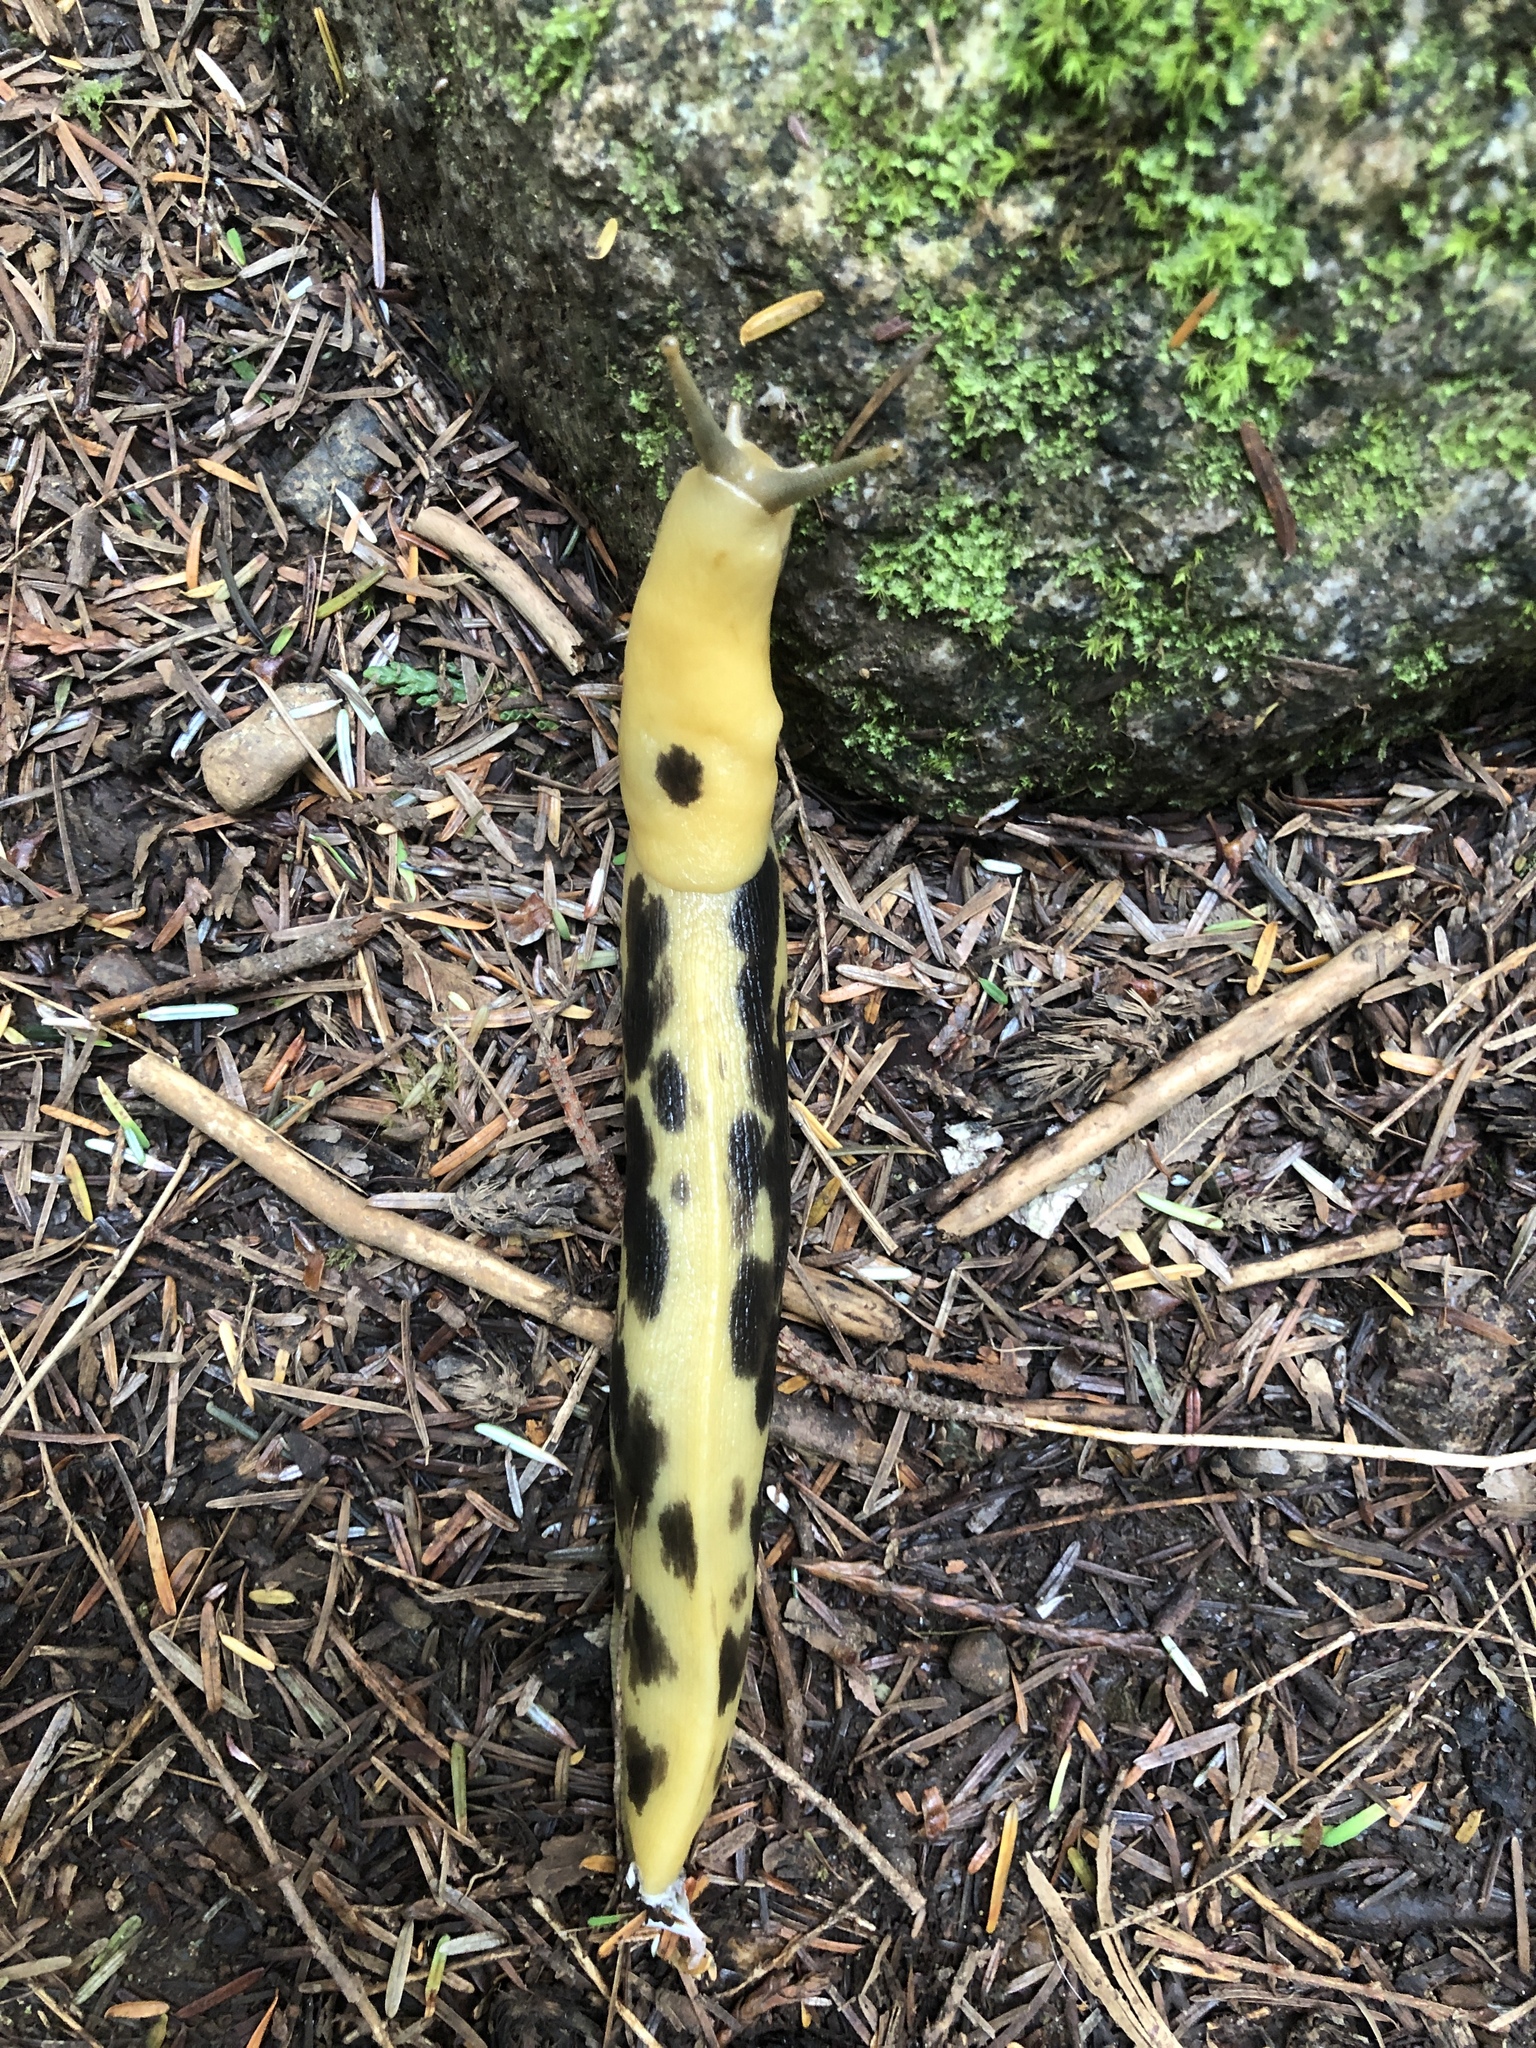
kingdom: Animalia
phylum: Mollusca
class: Gastropoda
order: Stylommatophora
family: Ariolimacidae
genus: Ariolimax
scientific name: Ariolimax columbianus
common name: Pacific banana slug
